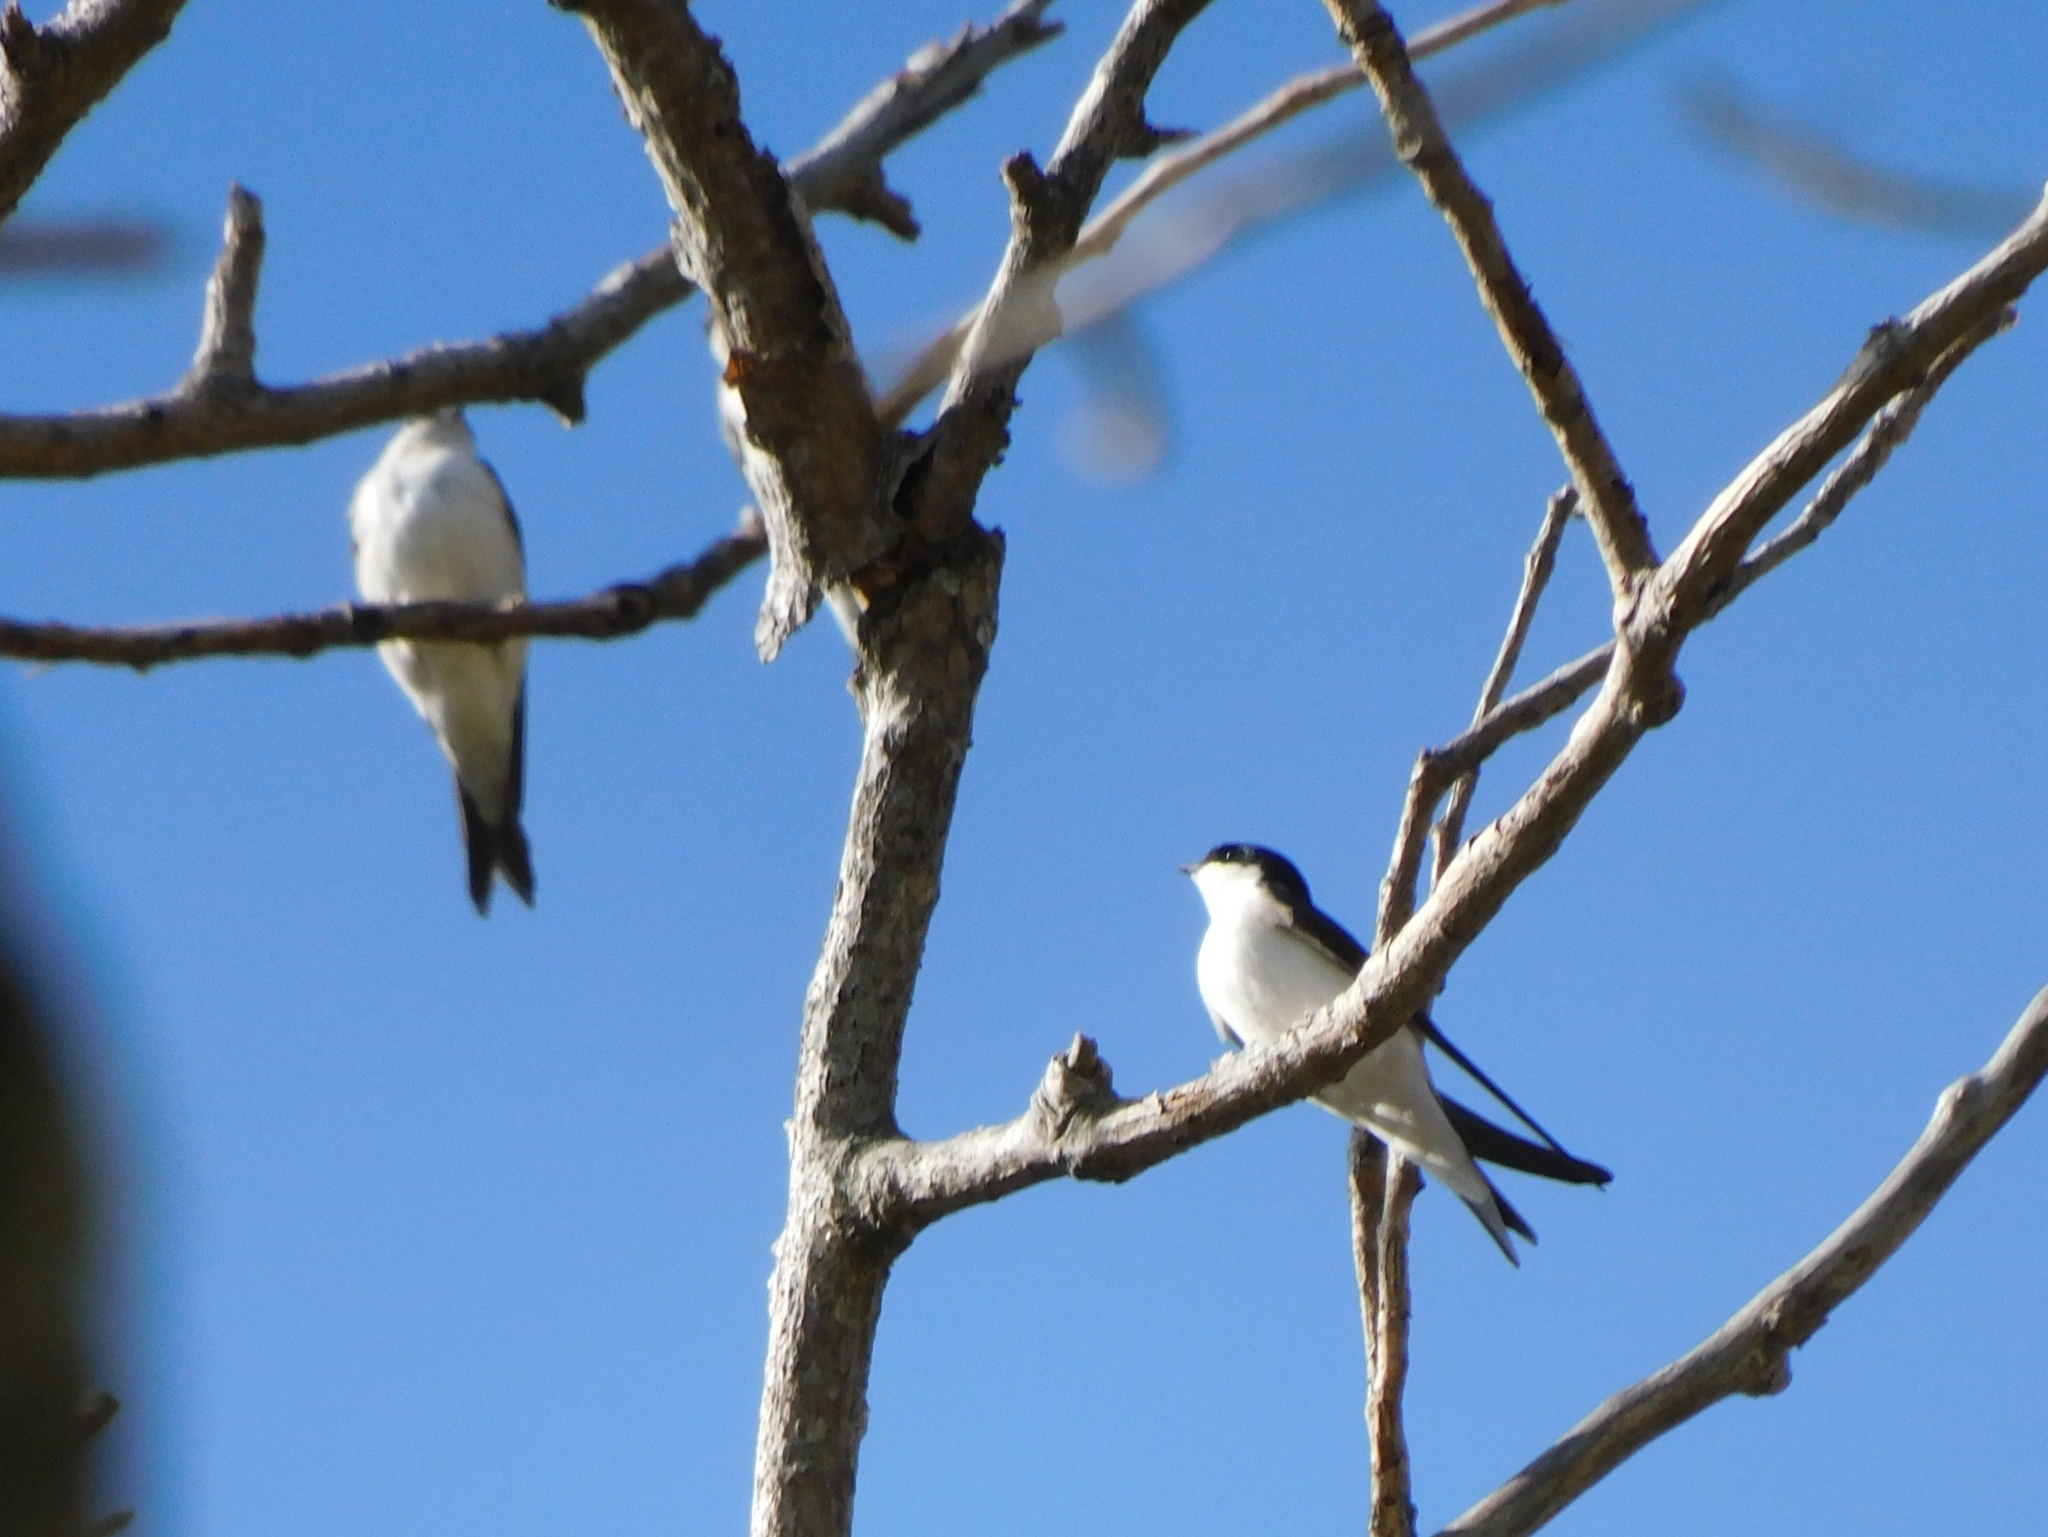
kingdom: Animalia
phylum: Chordata
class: Aves
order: Passeriformes
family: Hirundinidae
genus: Delichon
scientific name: Delichon urbicum
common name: Common house martin
